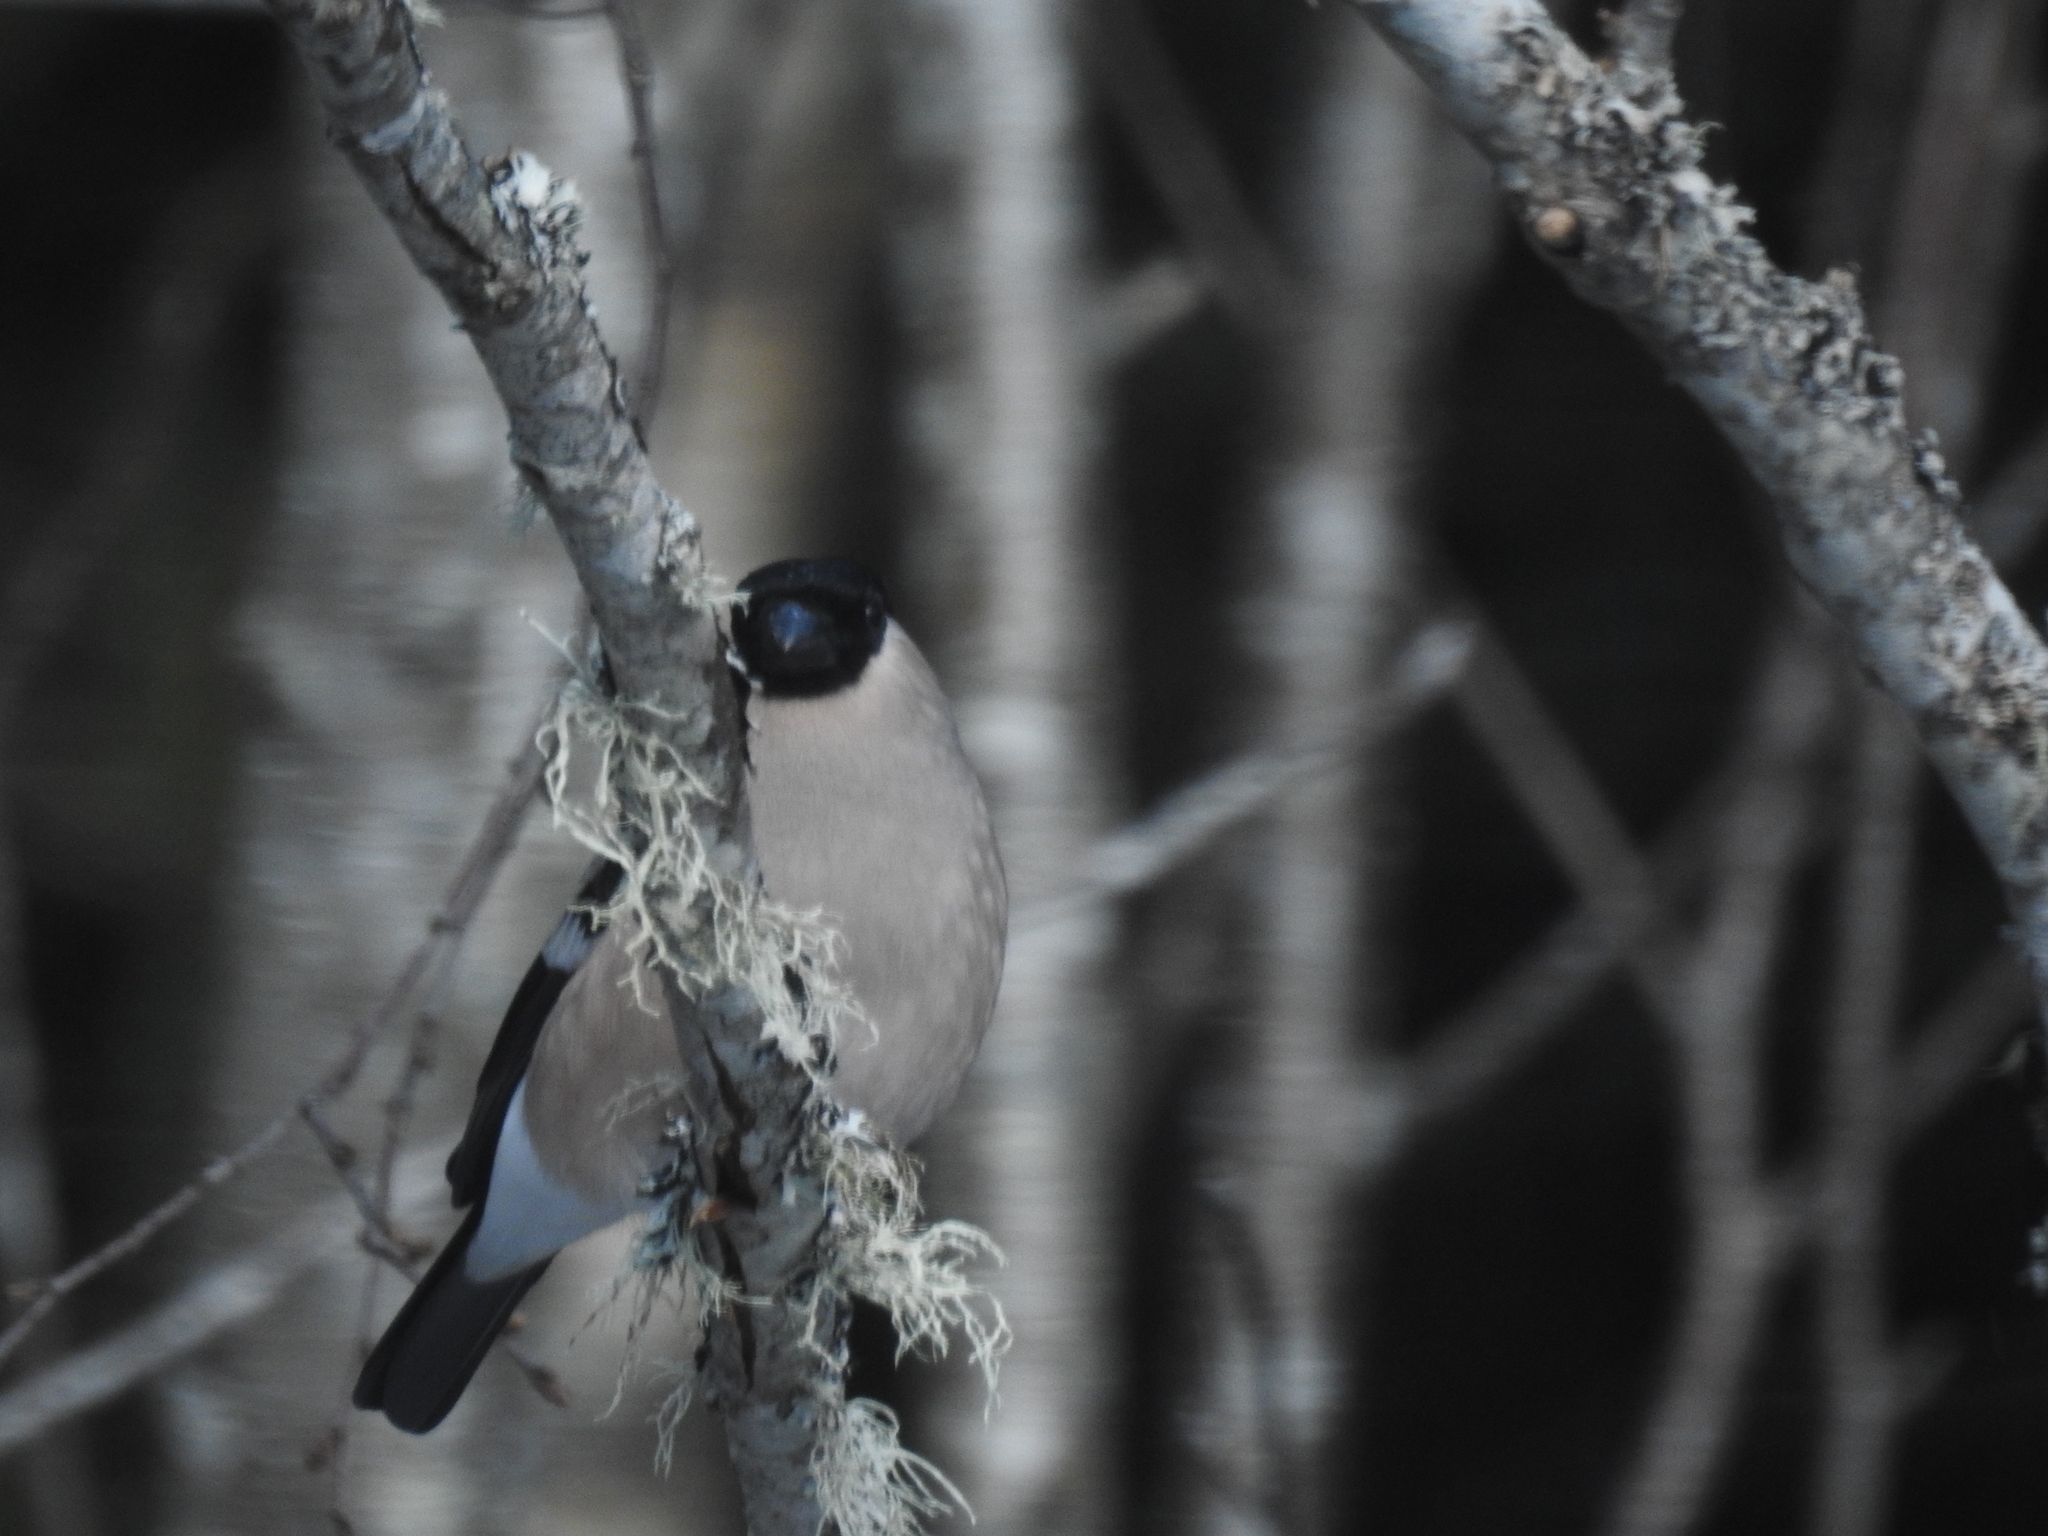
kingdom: Animalia
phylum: Chordata
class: Aves
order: Passeriformes
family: Fringillidae
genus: Pyrrhula
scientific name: Pyrrhula pyrrhula
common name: Eurasian bullfinch
